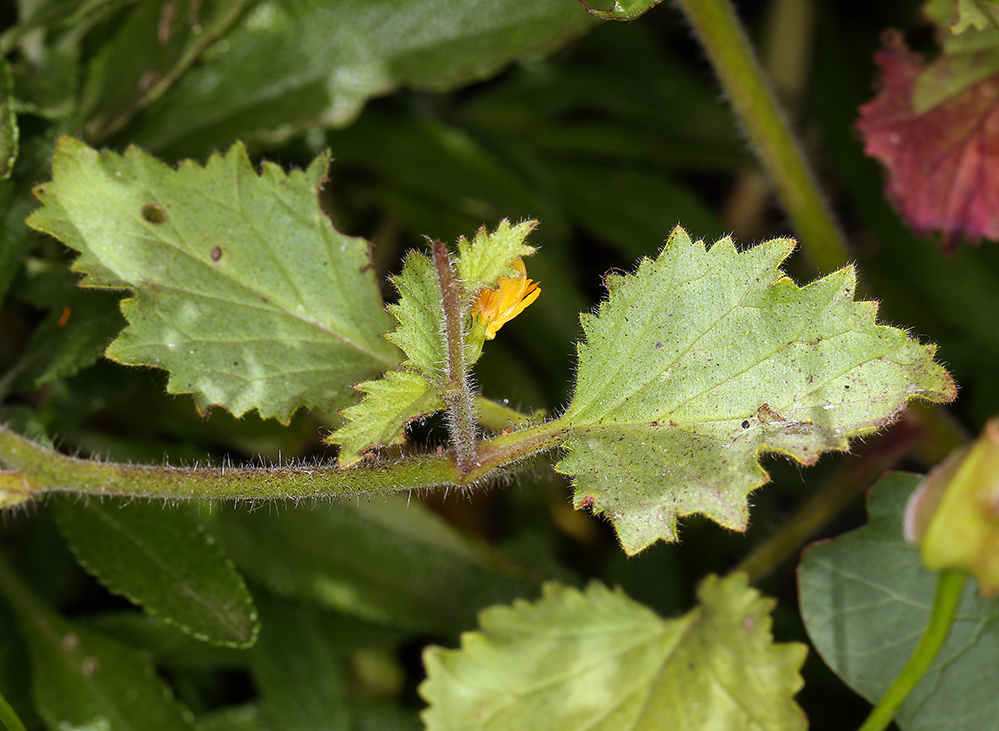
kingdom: Plantae
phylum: Tracheophyta
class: Magnoliopsida
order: Boraginales
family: Hydrophyllaceae
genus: Phacelia
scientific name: Phacelia parryi
